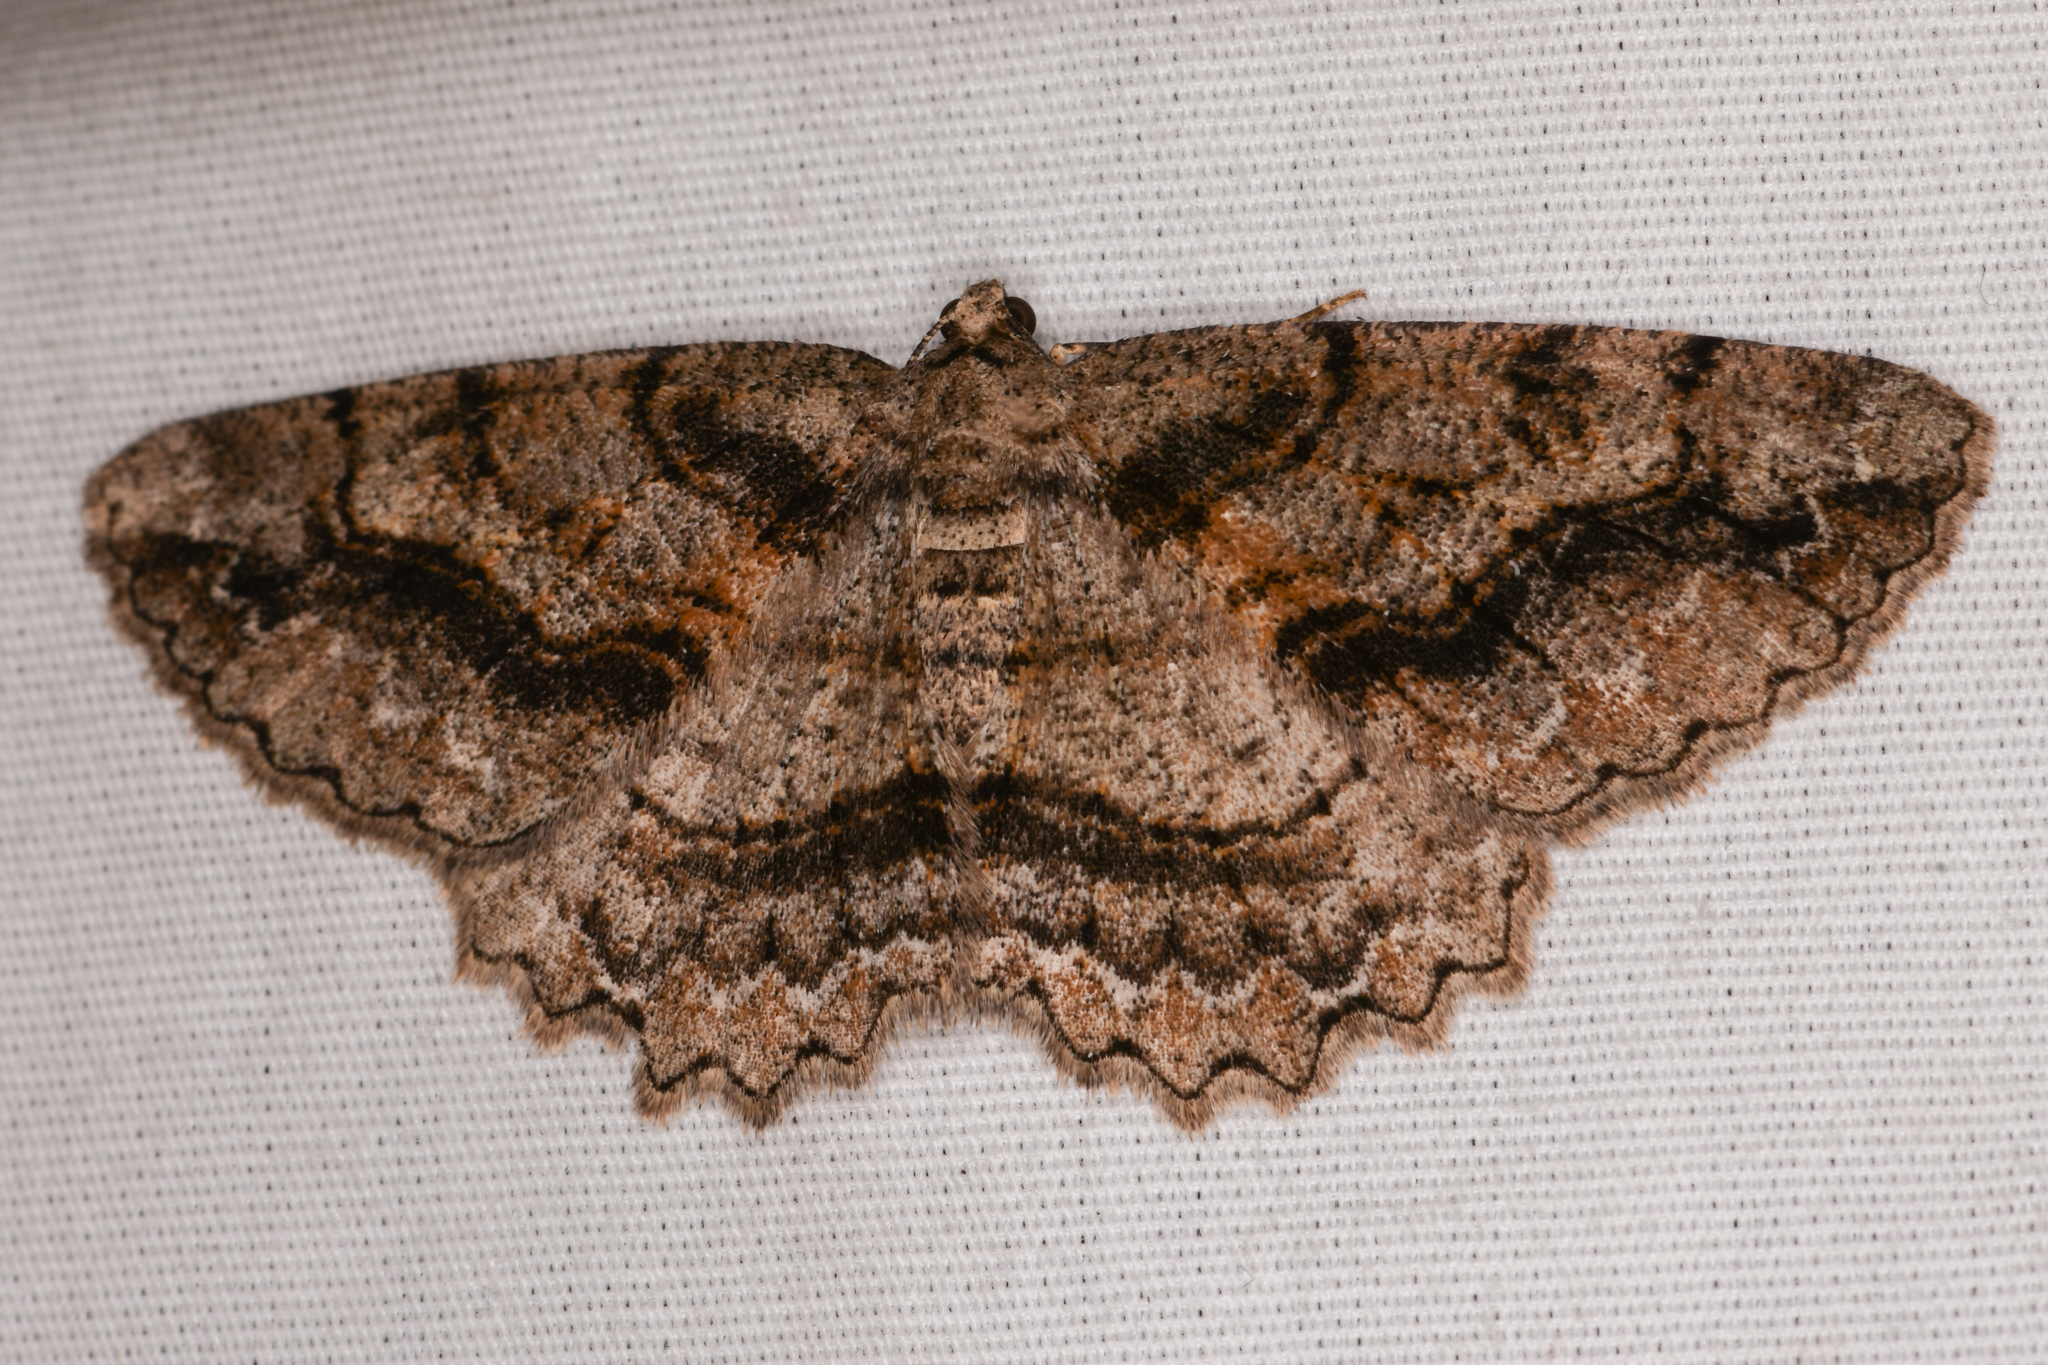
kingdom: Animalia
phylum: Arthropoda
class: Insecta
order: Lepidoptera
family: Geometridae
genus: Neoalcis
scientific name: Neoalcis californiaria
